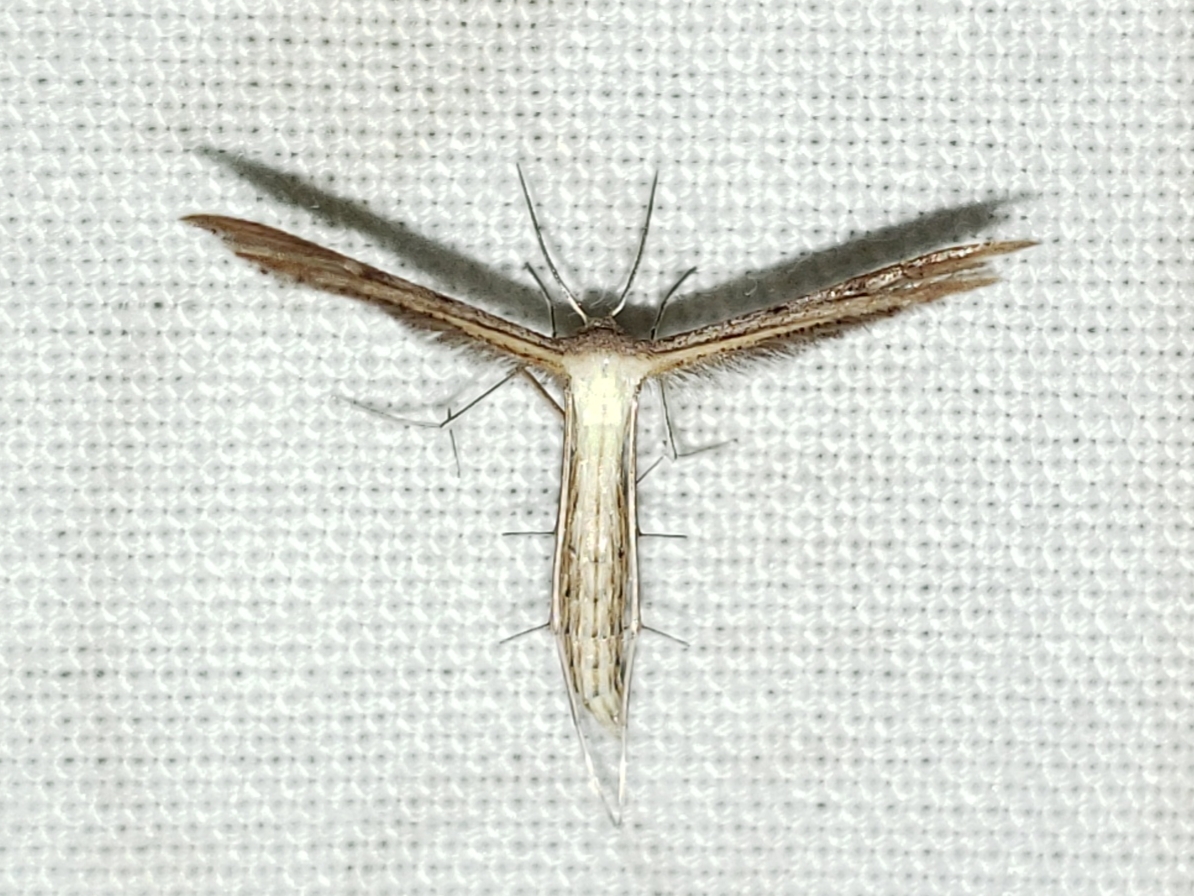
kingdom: Animalia
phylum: Arthropoda
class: Insecta
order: Lepidoptera
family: Pterophoridae
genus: Emmelina
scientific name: Emmelina monodactyla
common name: Common plume
